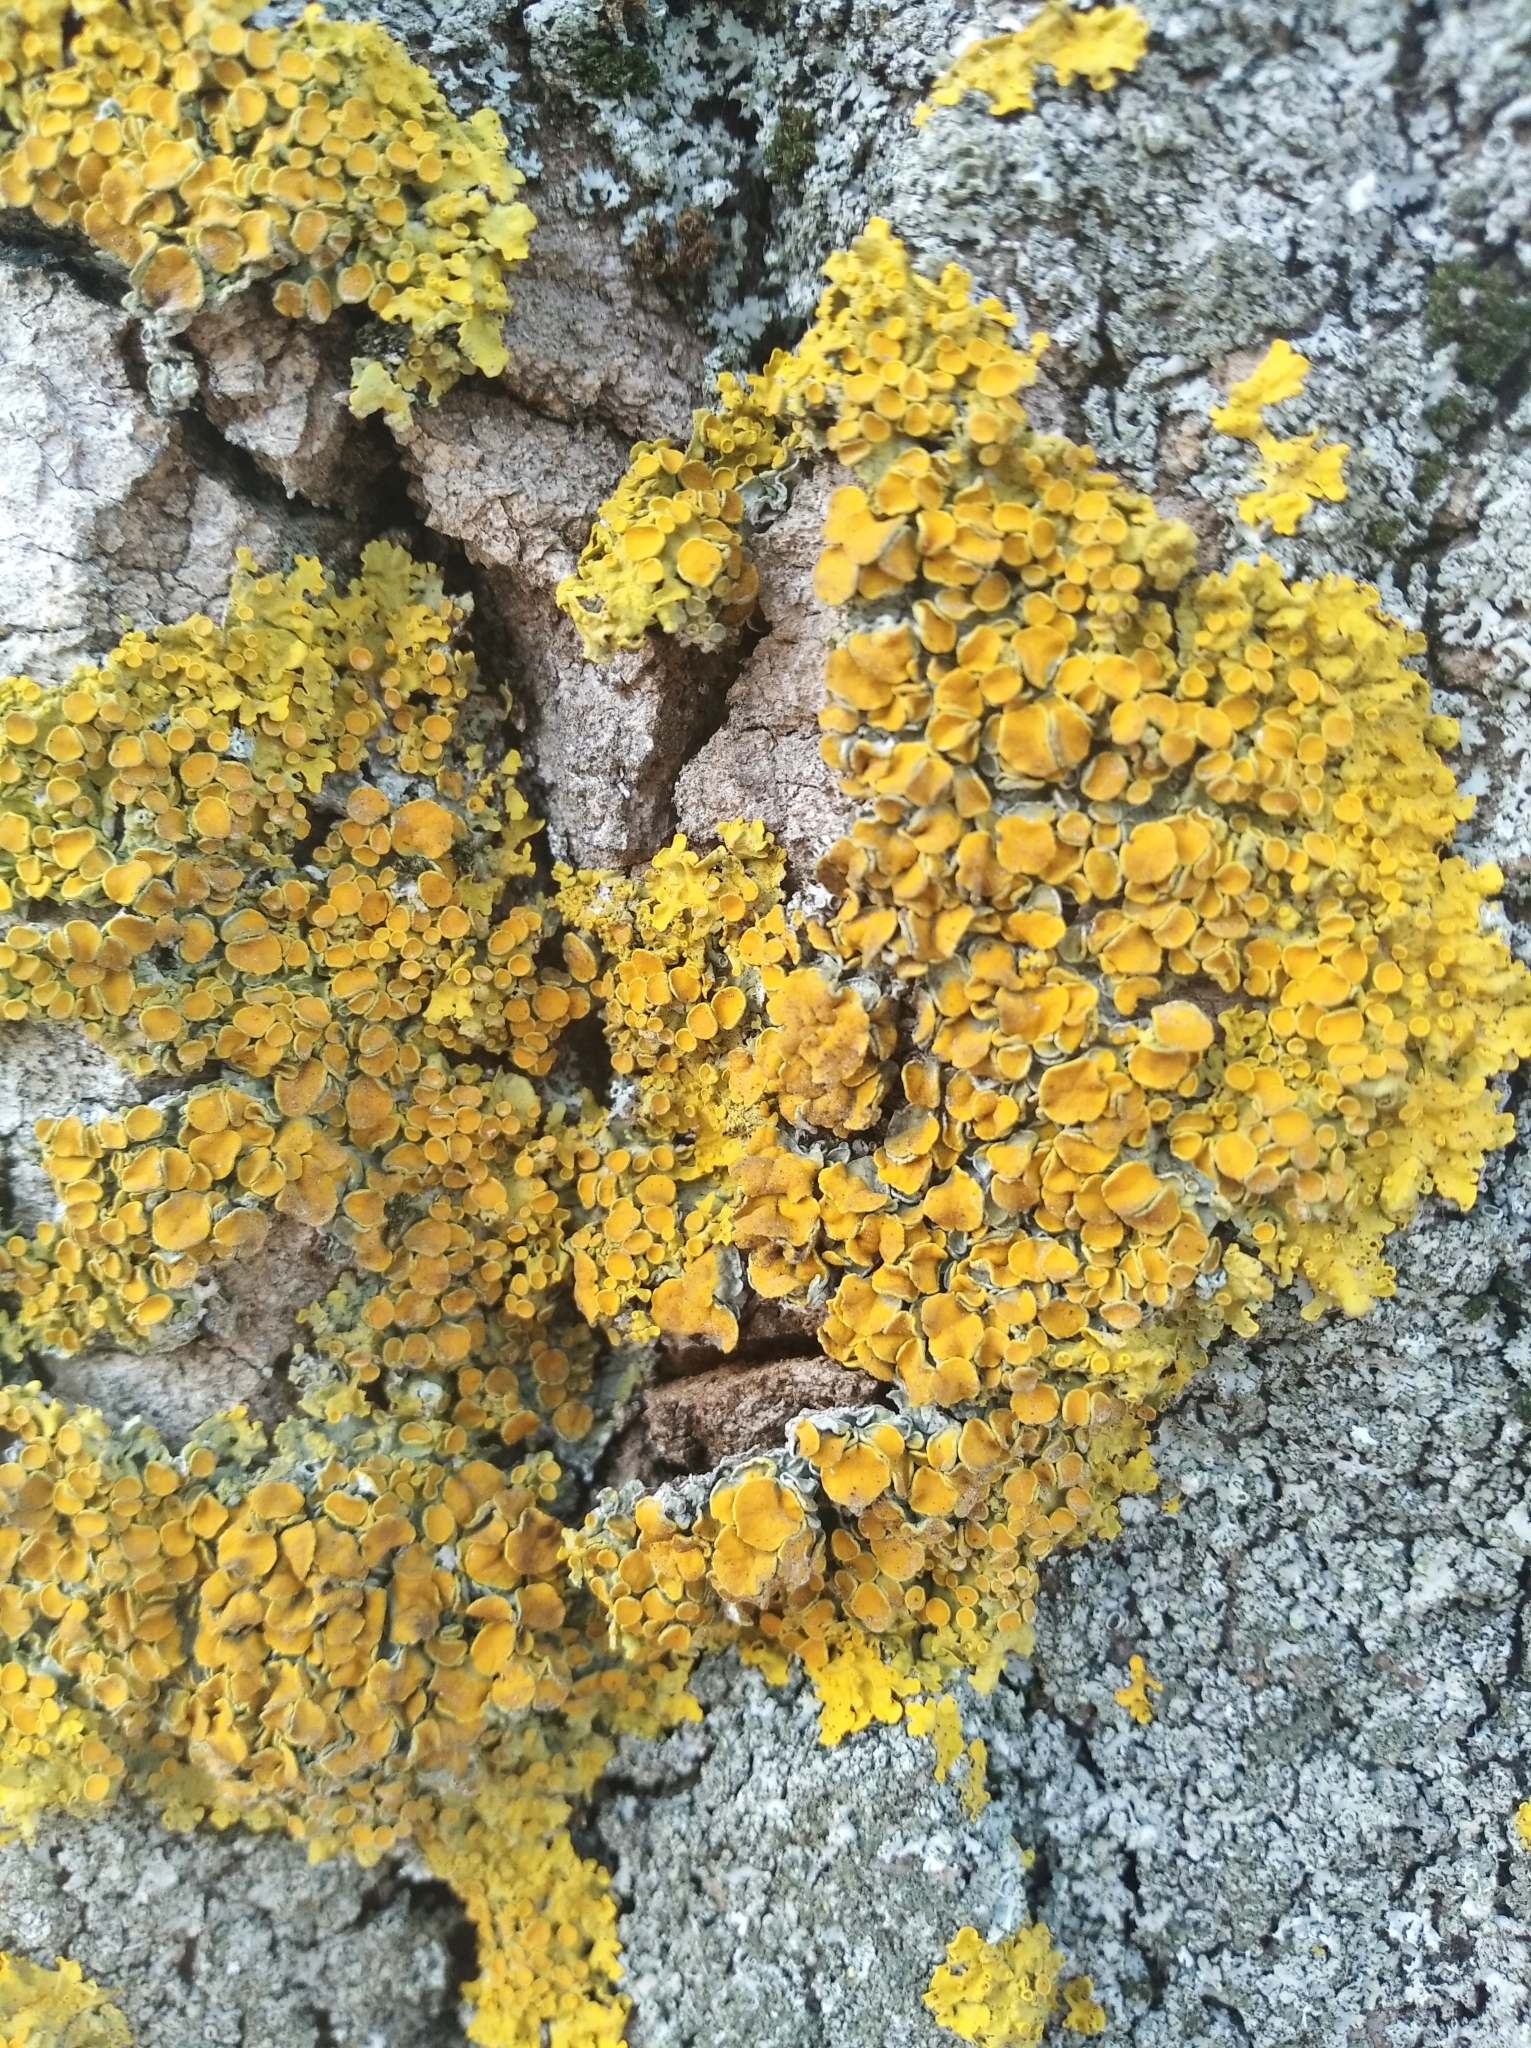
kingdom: Fungi
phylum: Ascomycota
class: Lecanoromycetes
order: Teloschistales
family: Teloschistaceae
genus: Xanthoria
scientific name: Xanthoria parietina
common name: Common orange lichen
